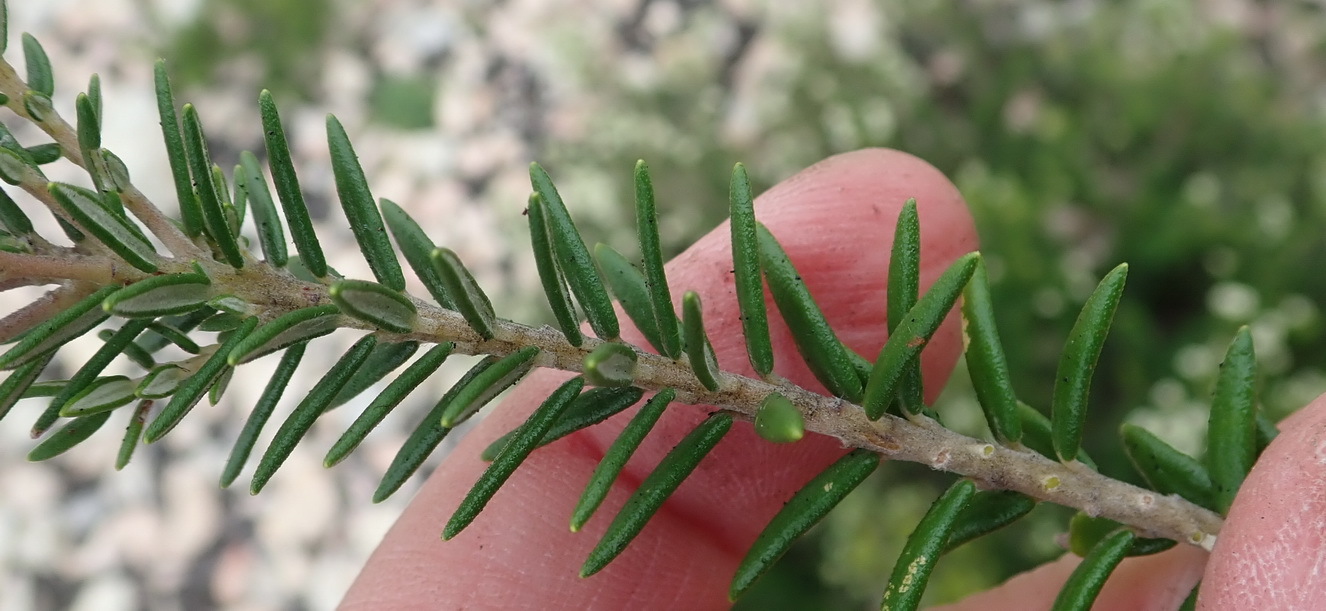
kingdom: Plantae
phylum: Tracheophyta
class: Magnoliopsida
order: Rosales
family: Rhamnaceae
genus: Phylica
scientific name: Phylica axillaris
